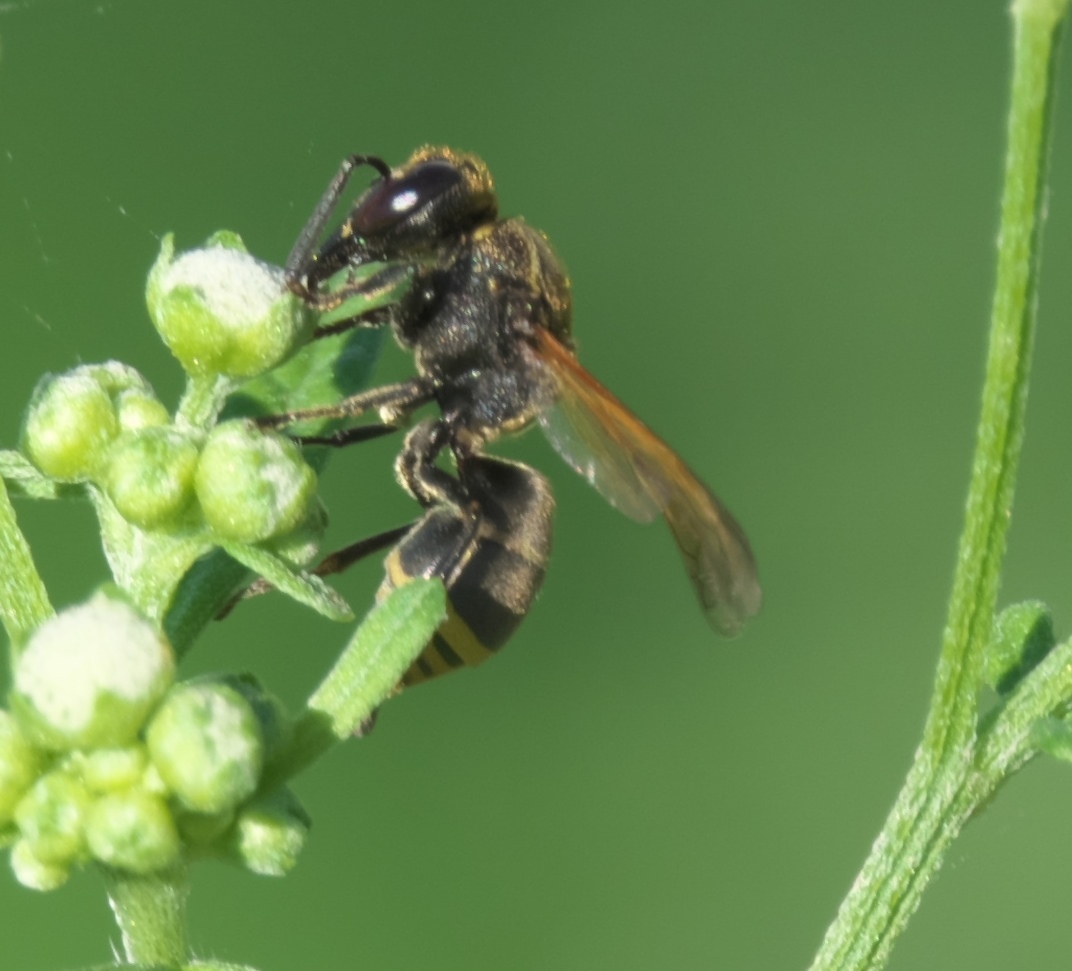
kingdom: Animalia
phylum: Arthropoda
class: Insecta
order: Hymenoptera
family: Eumenidae
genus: Pachodynerus
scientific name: Pachodynerus guadulpensis
